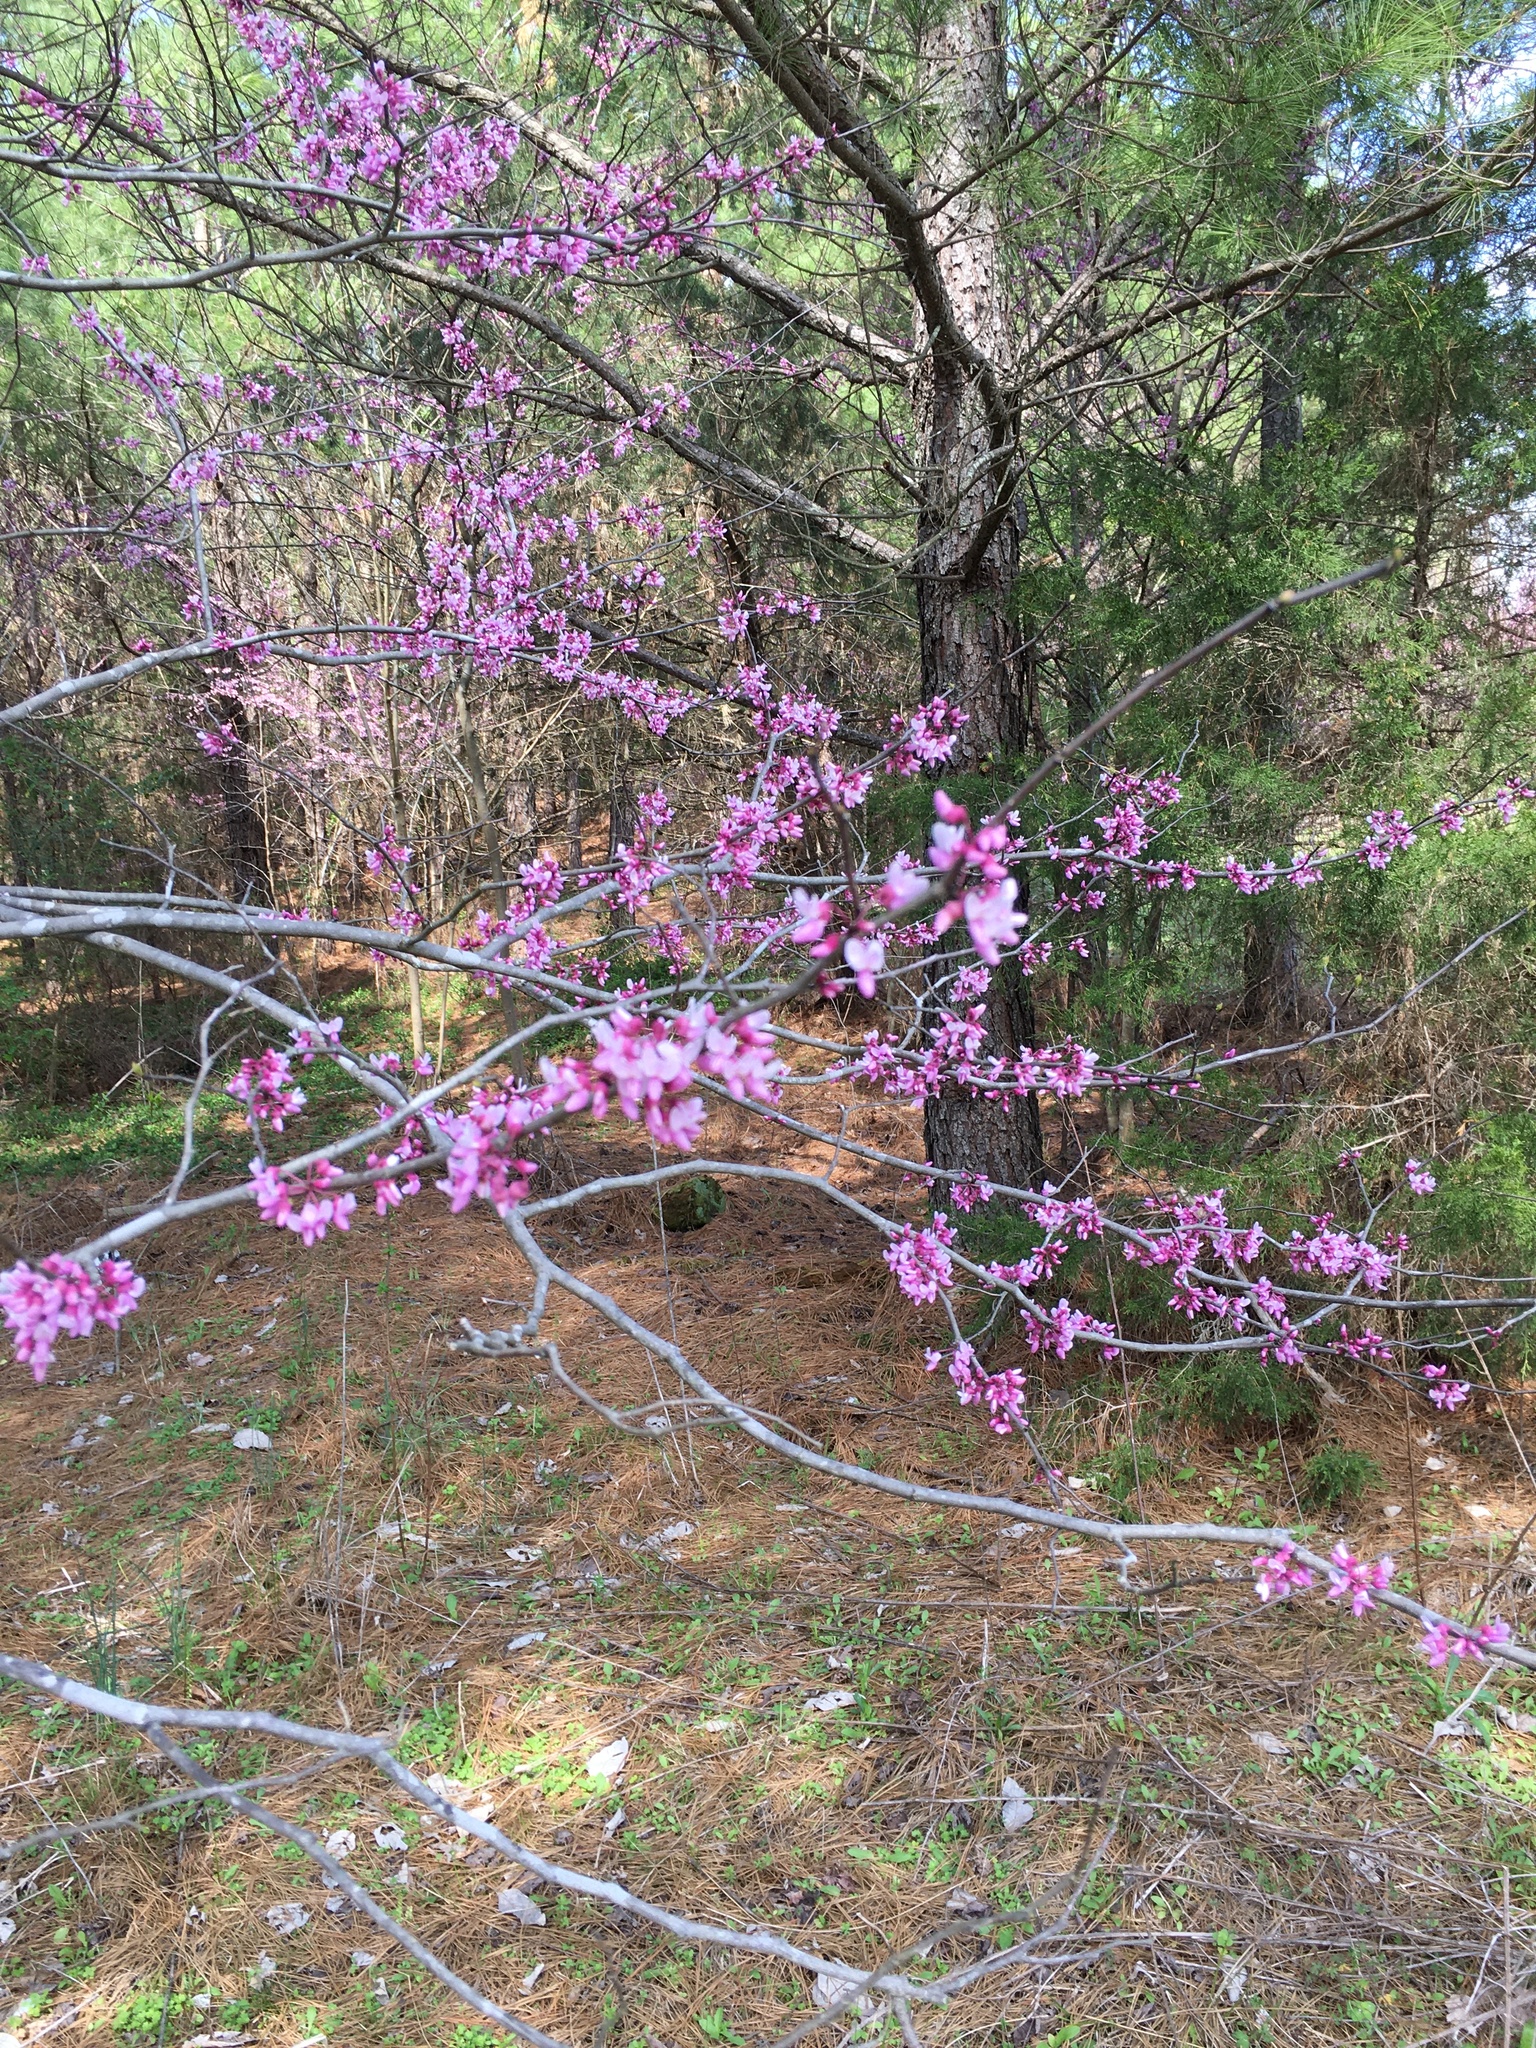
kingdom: Plantae
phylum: Tracheophyta
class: Magnoliopsida
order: Fabales
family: Fabaceae
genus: Cercis
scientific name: Cercis canadensis
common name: Eastern redbud
